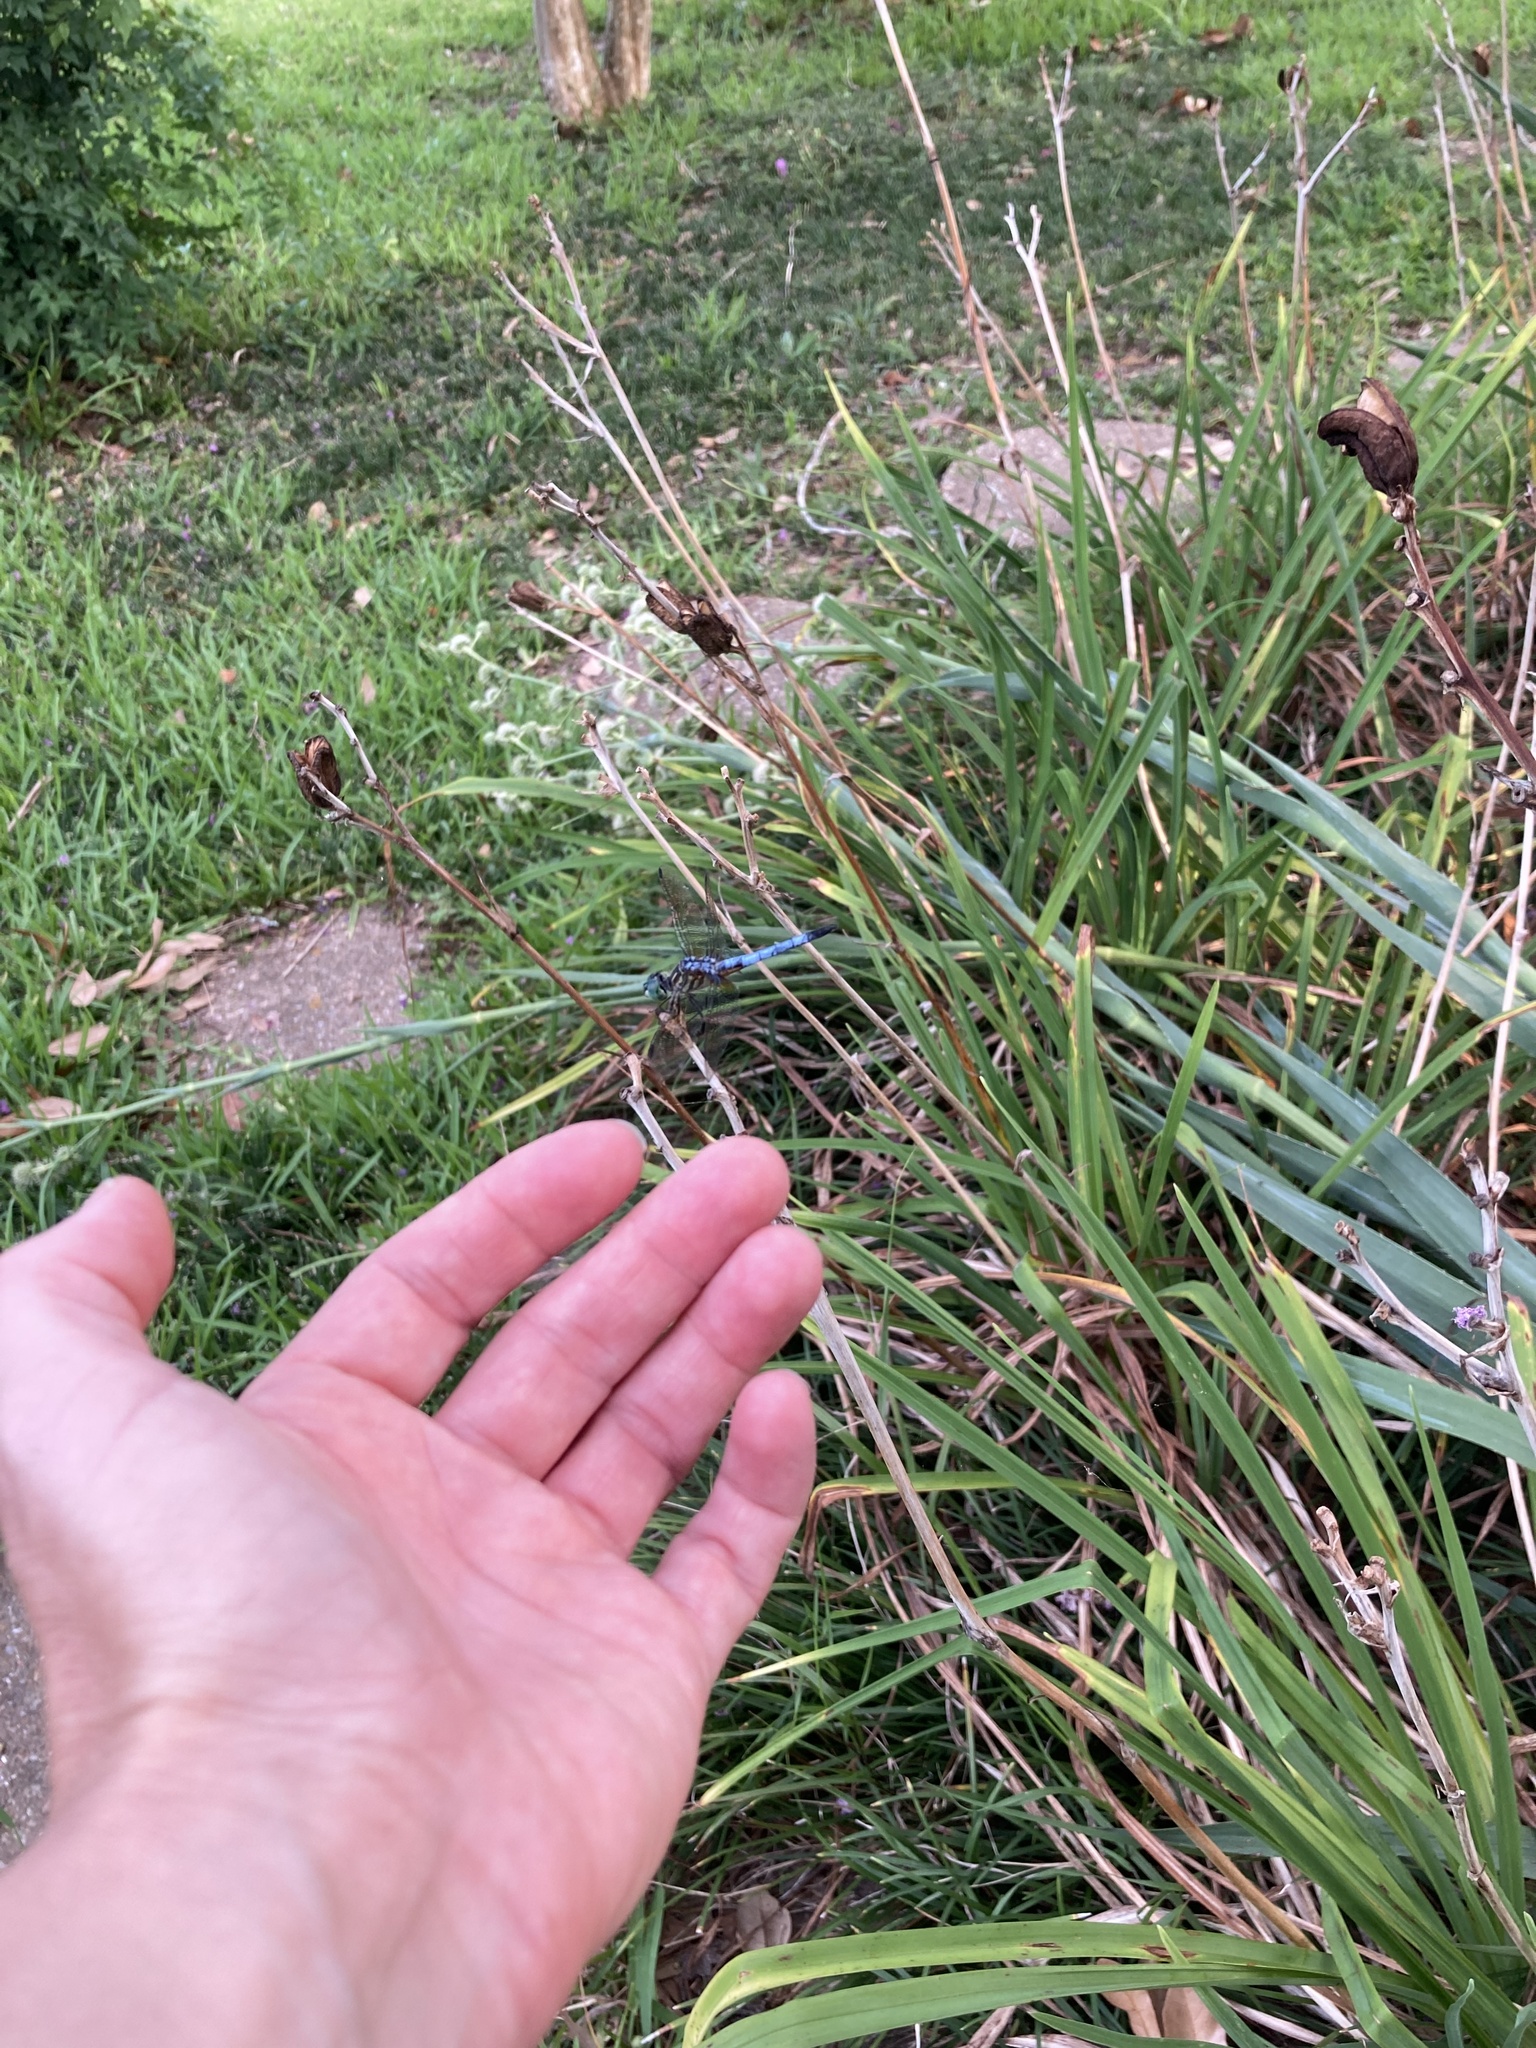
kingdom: Animalia
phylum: Arthropoda
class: Insecta
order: Odonata
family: Libellulidae
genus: Pachydiplax
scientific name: Pachydiplax longipennis
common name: Blue dasher
